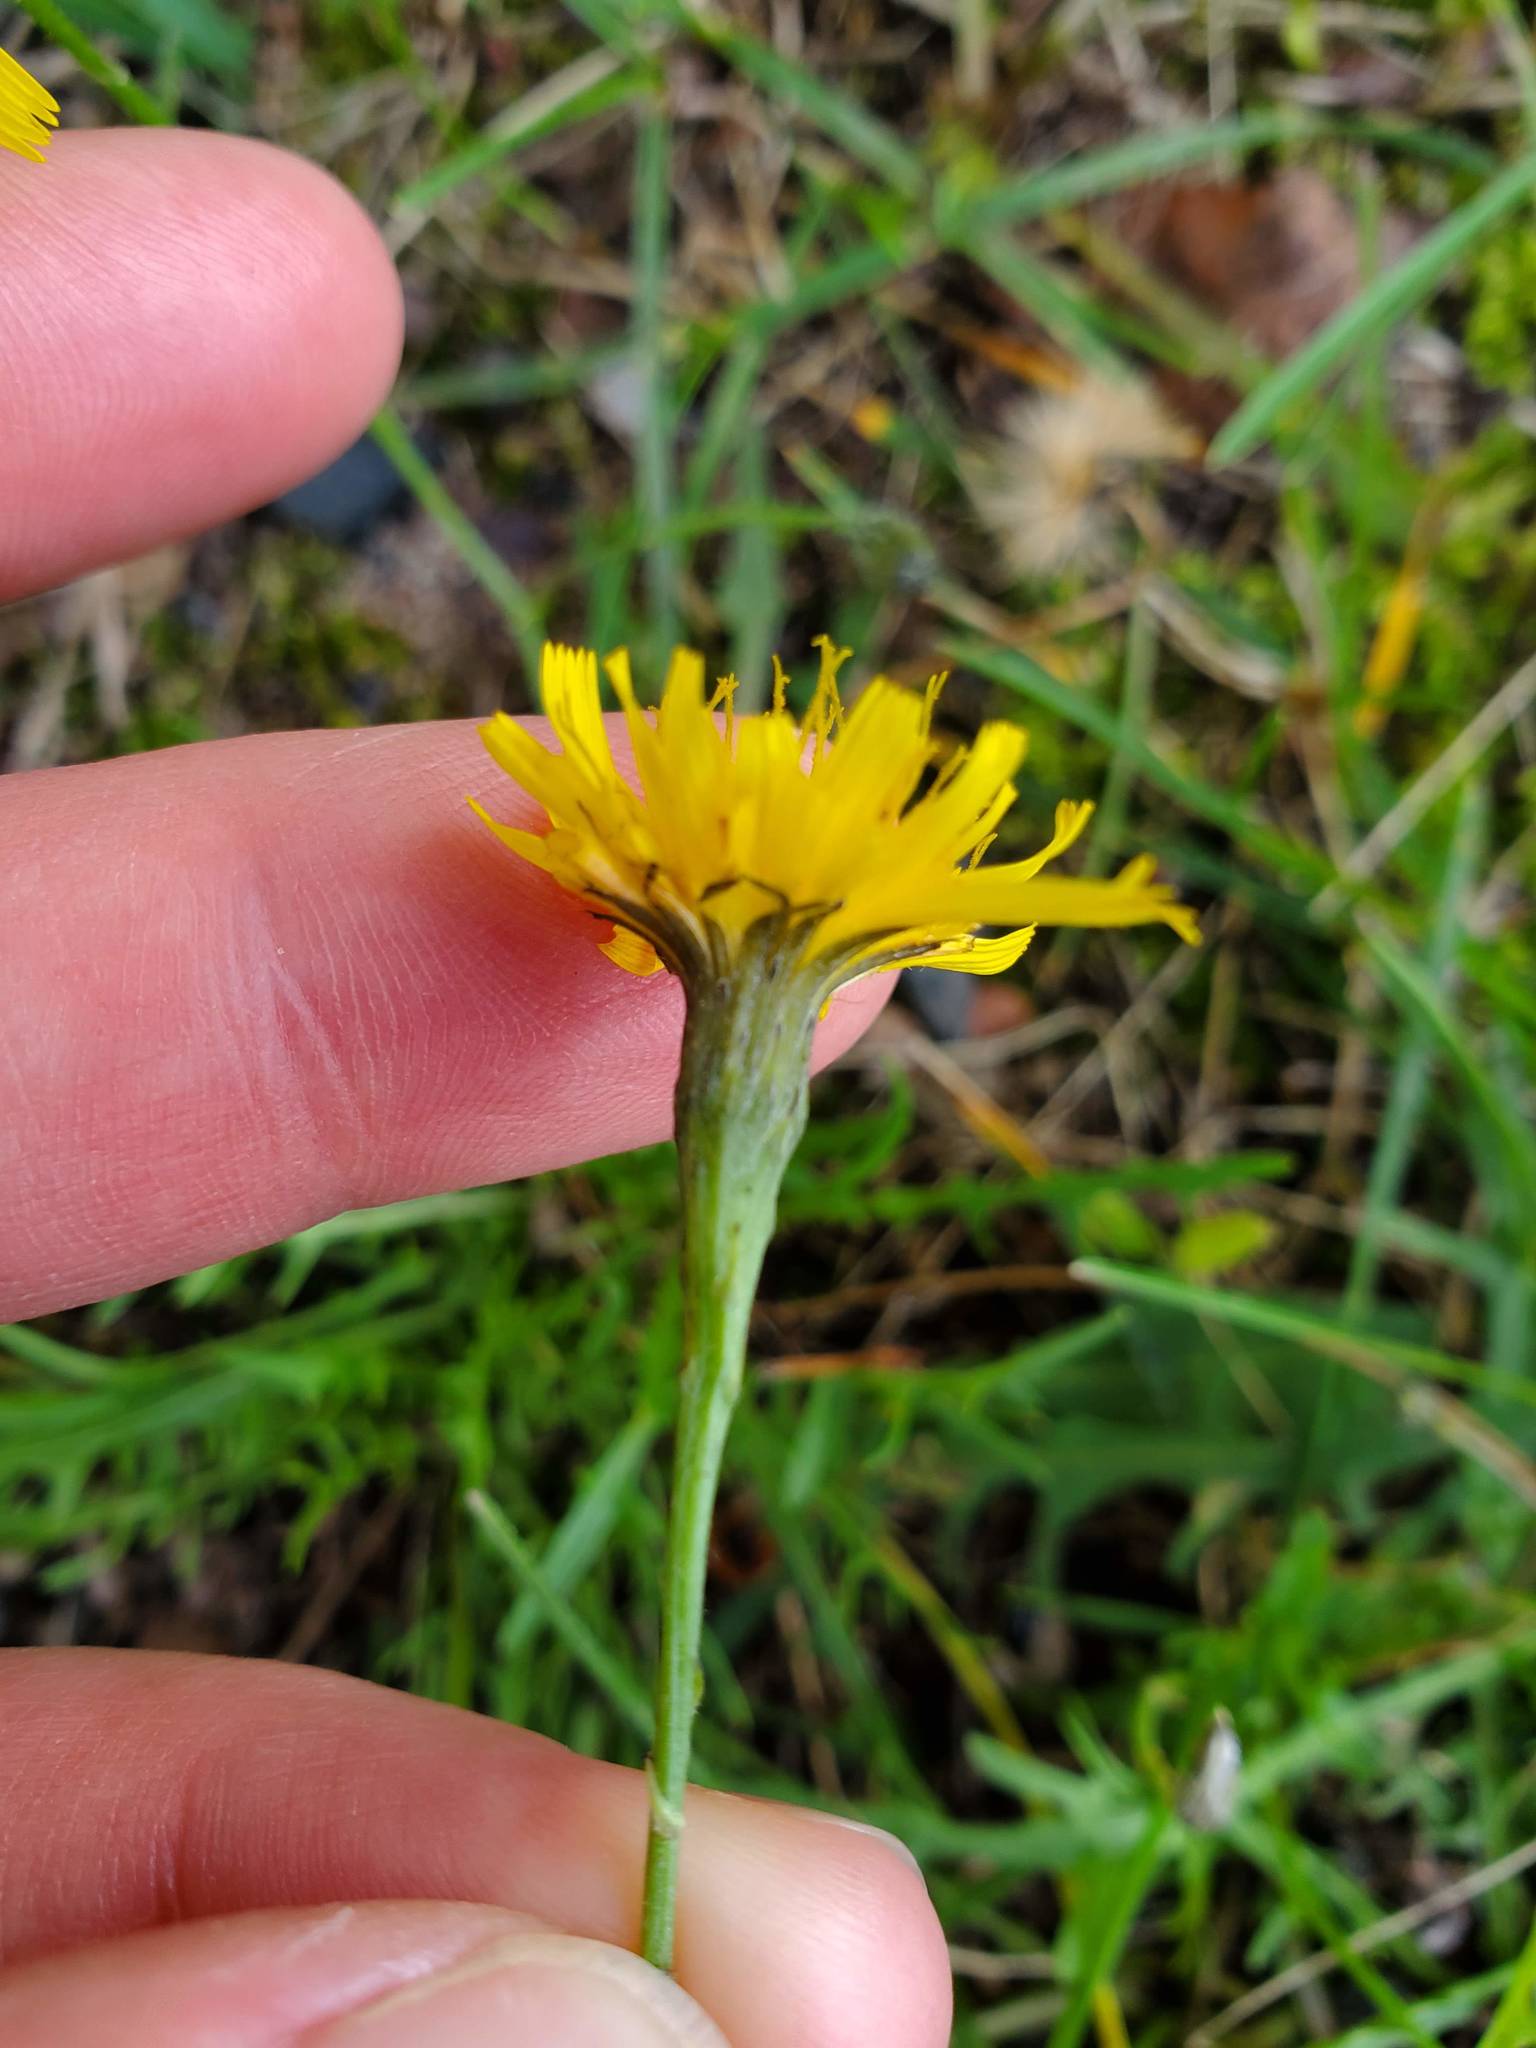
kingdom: Plantae
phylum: Tracheophyta
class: Magnoliopsida
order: Asterales
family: Asteraceae
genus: Scorzoneroides
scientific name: Scorzoneroides autumnalis
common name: Autumn hawkbit
